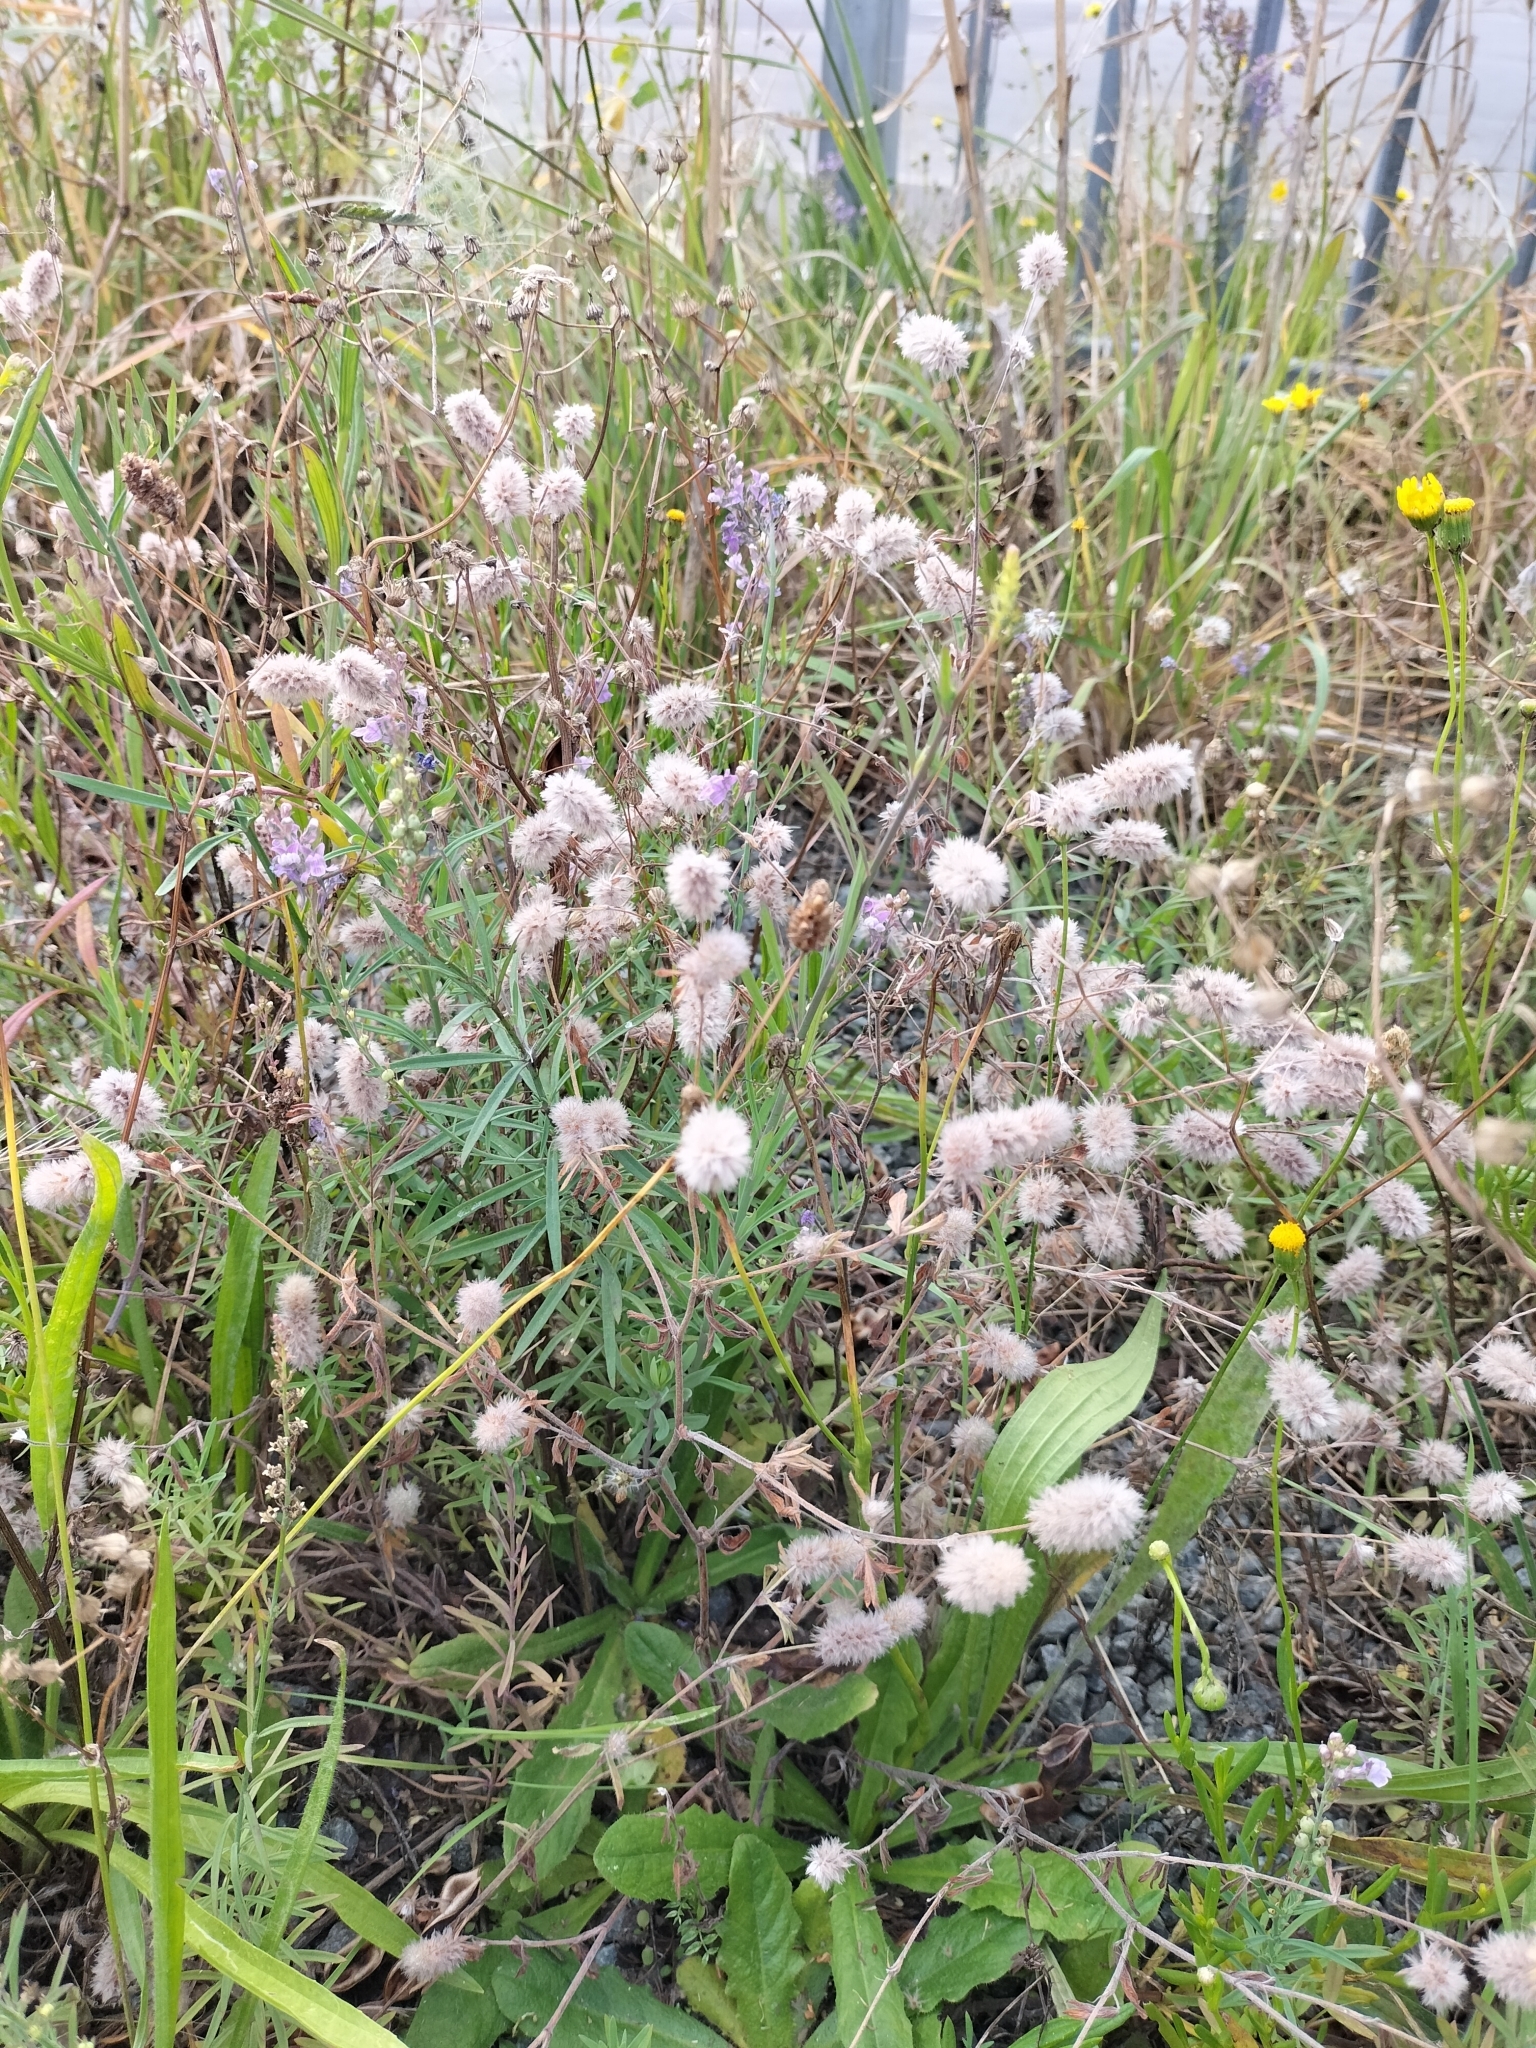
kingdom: Plantae
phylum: Tracheophyta
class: Magnoliopsida
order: Fabales
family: Fabaceae
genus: Trifolium
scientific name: Trifolium arvense
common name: Hare's-foot clover
